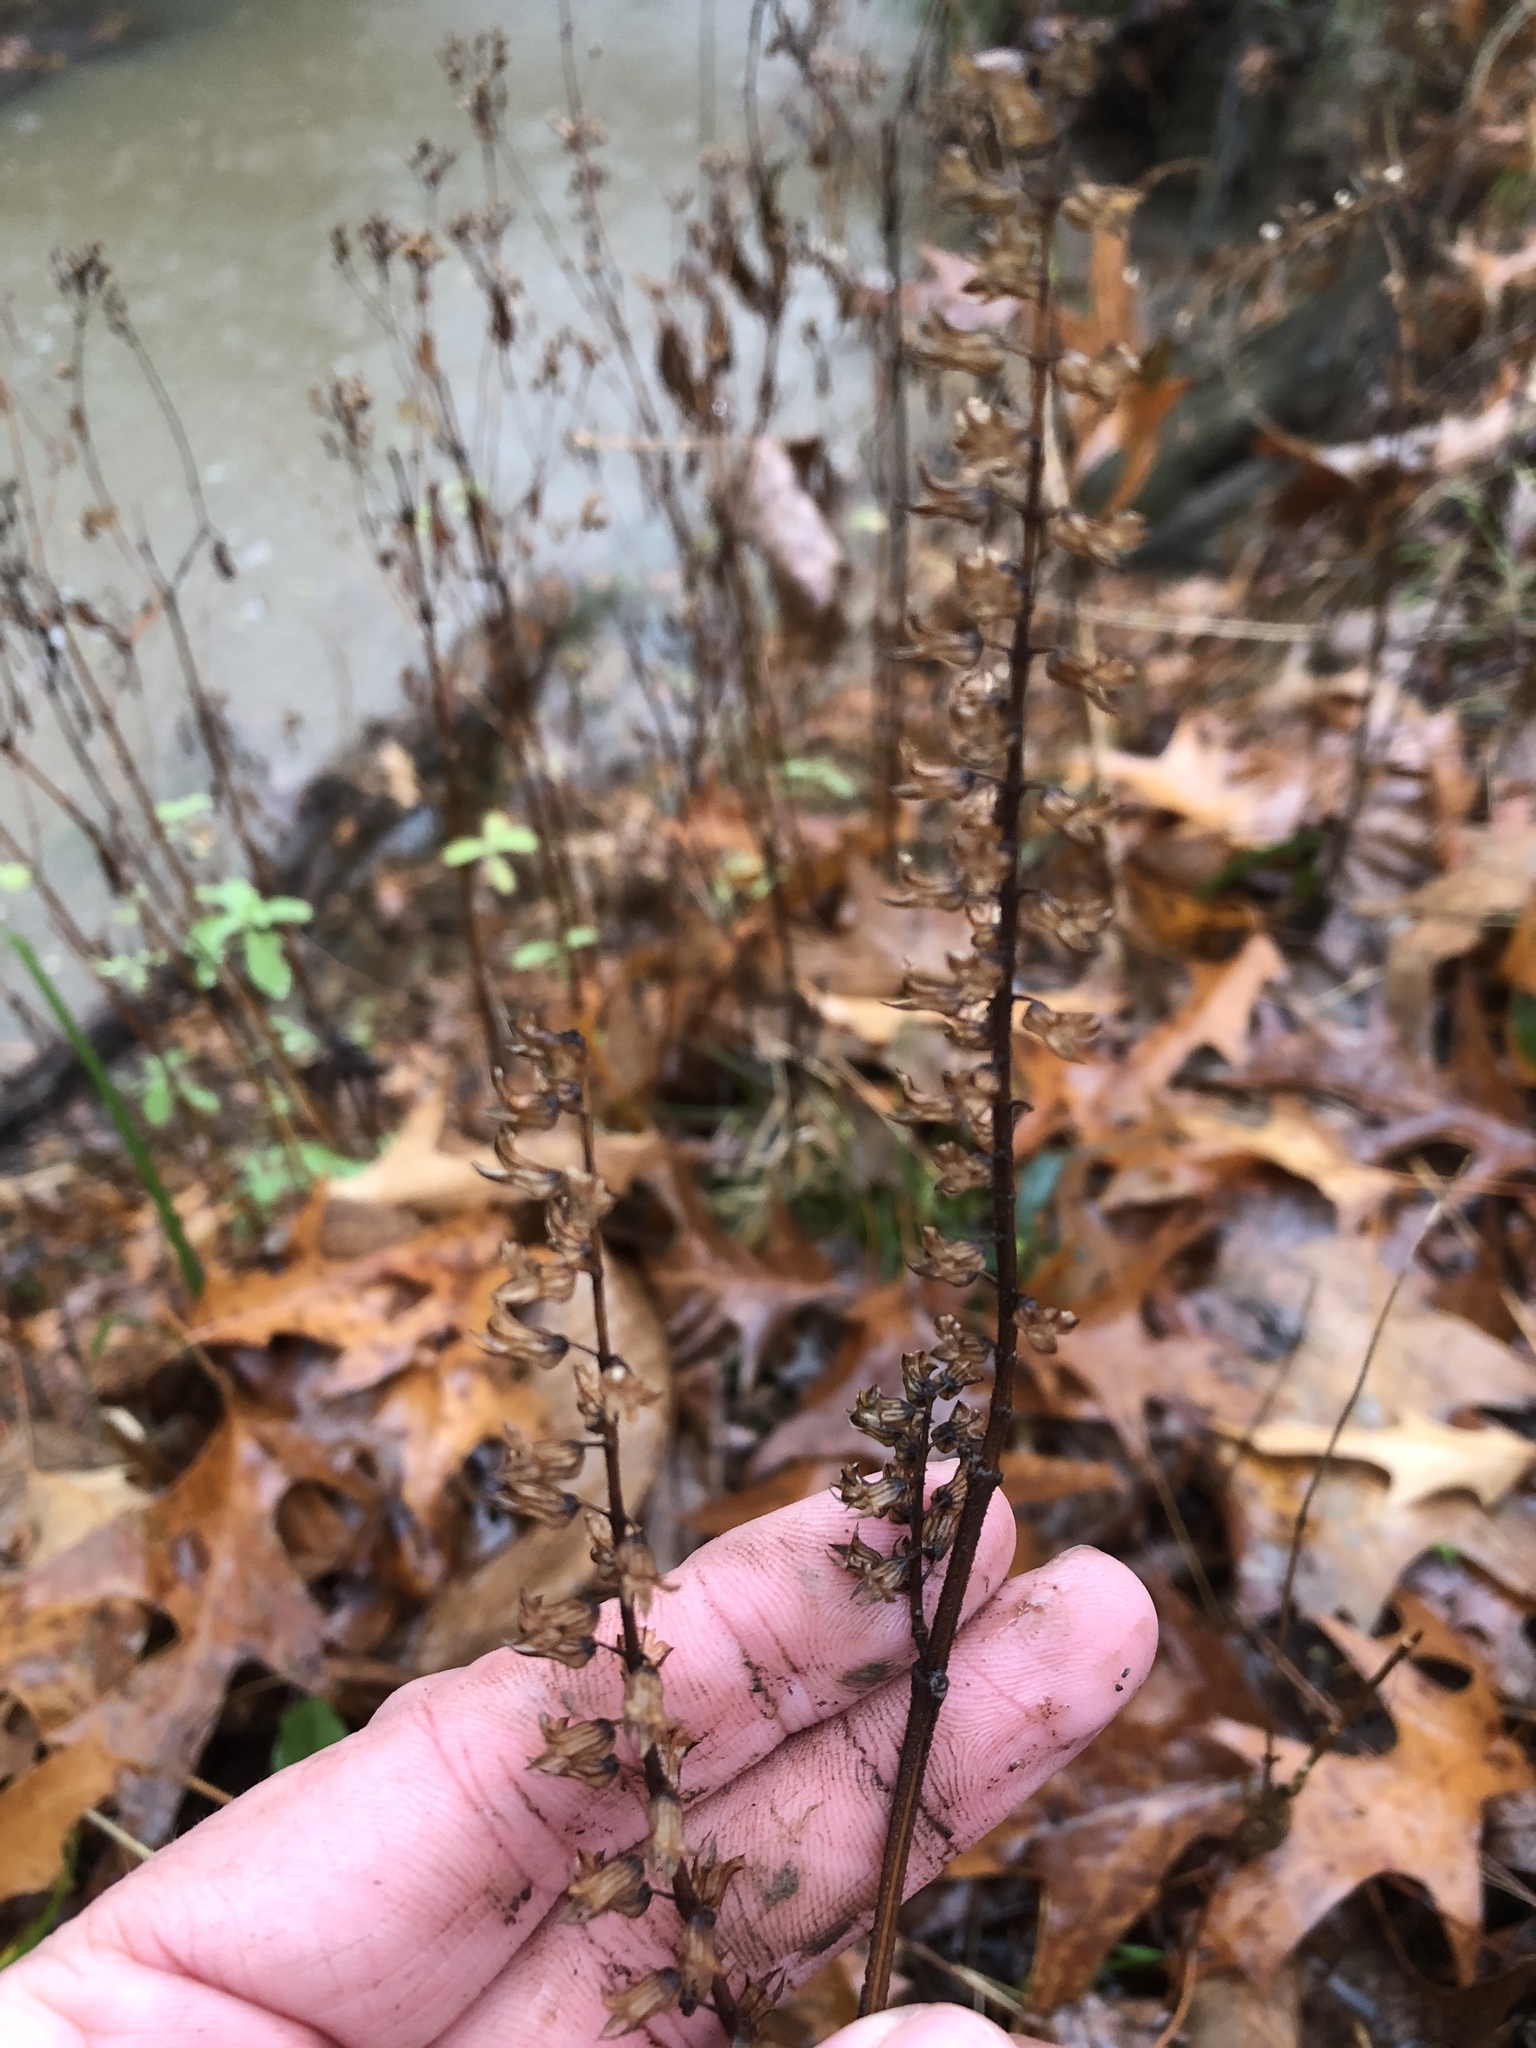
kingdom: Plantae
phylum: Tracheophyta
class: Magnoliopsida
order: Lamiales
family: Lamiaceae
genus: Perilla
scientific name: Perilla frutescens
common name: Perilla
